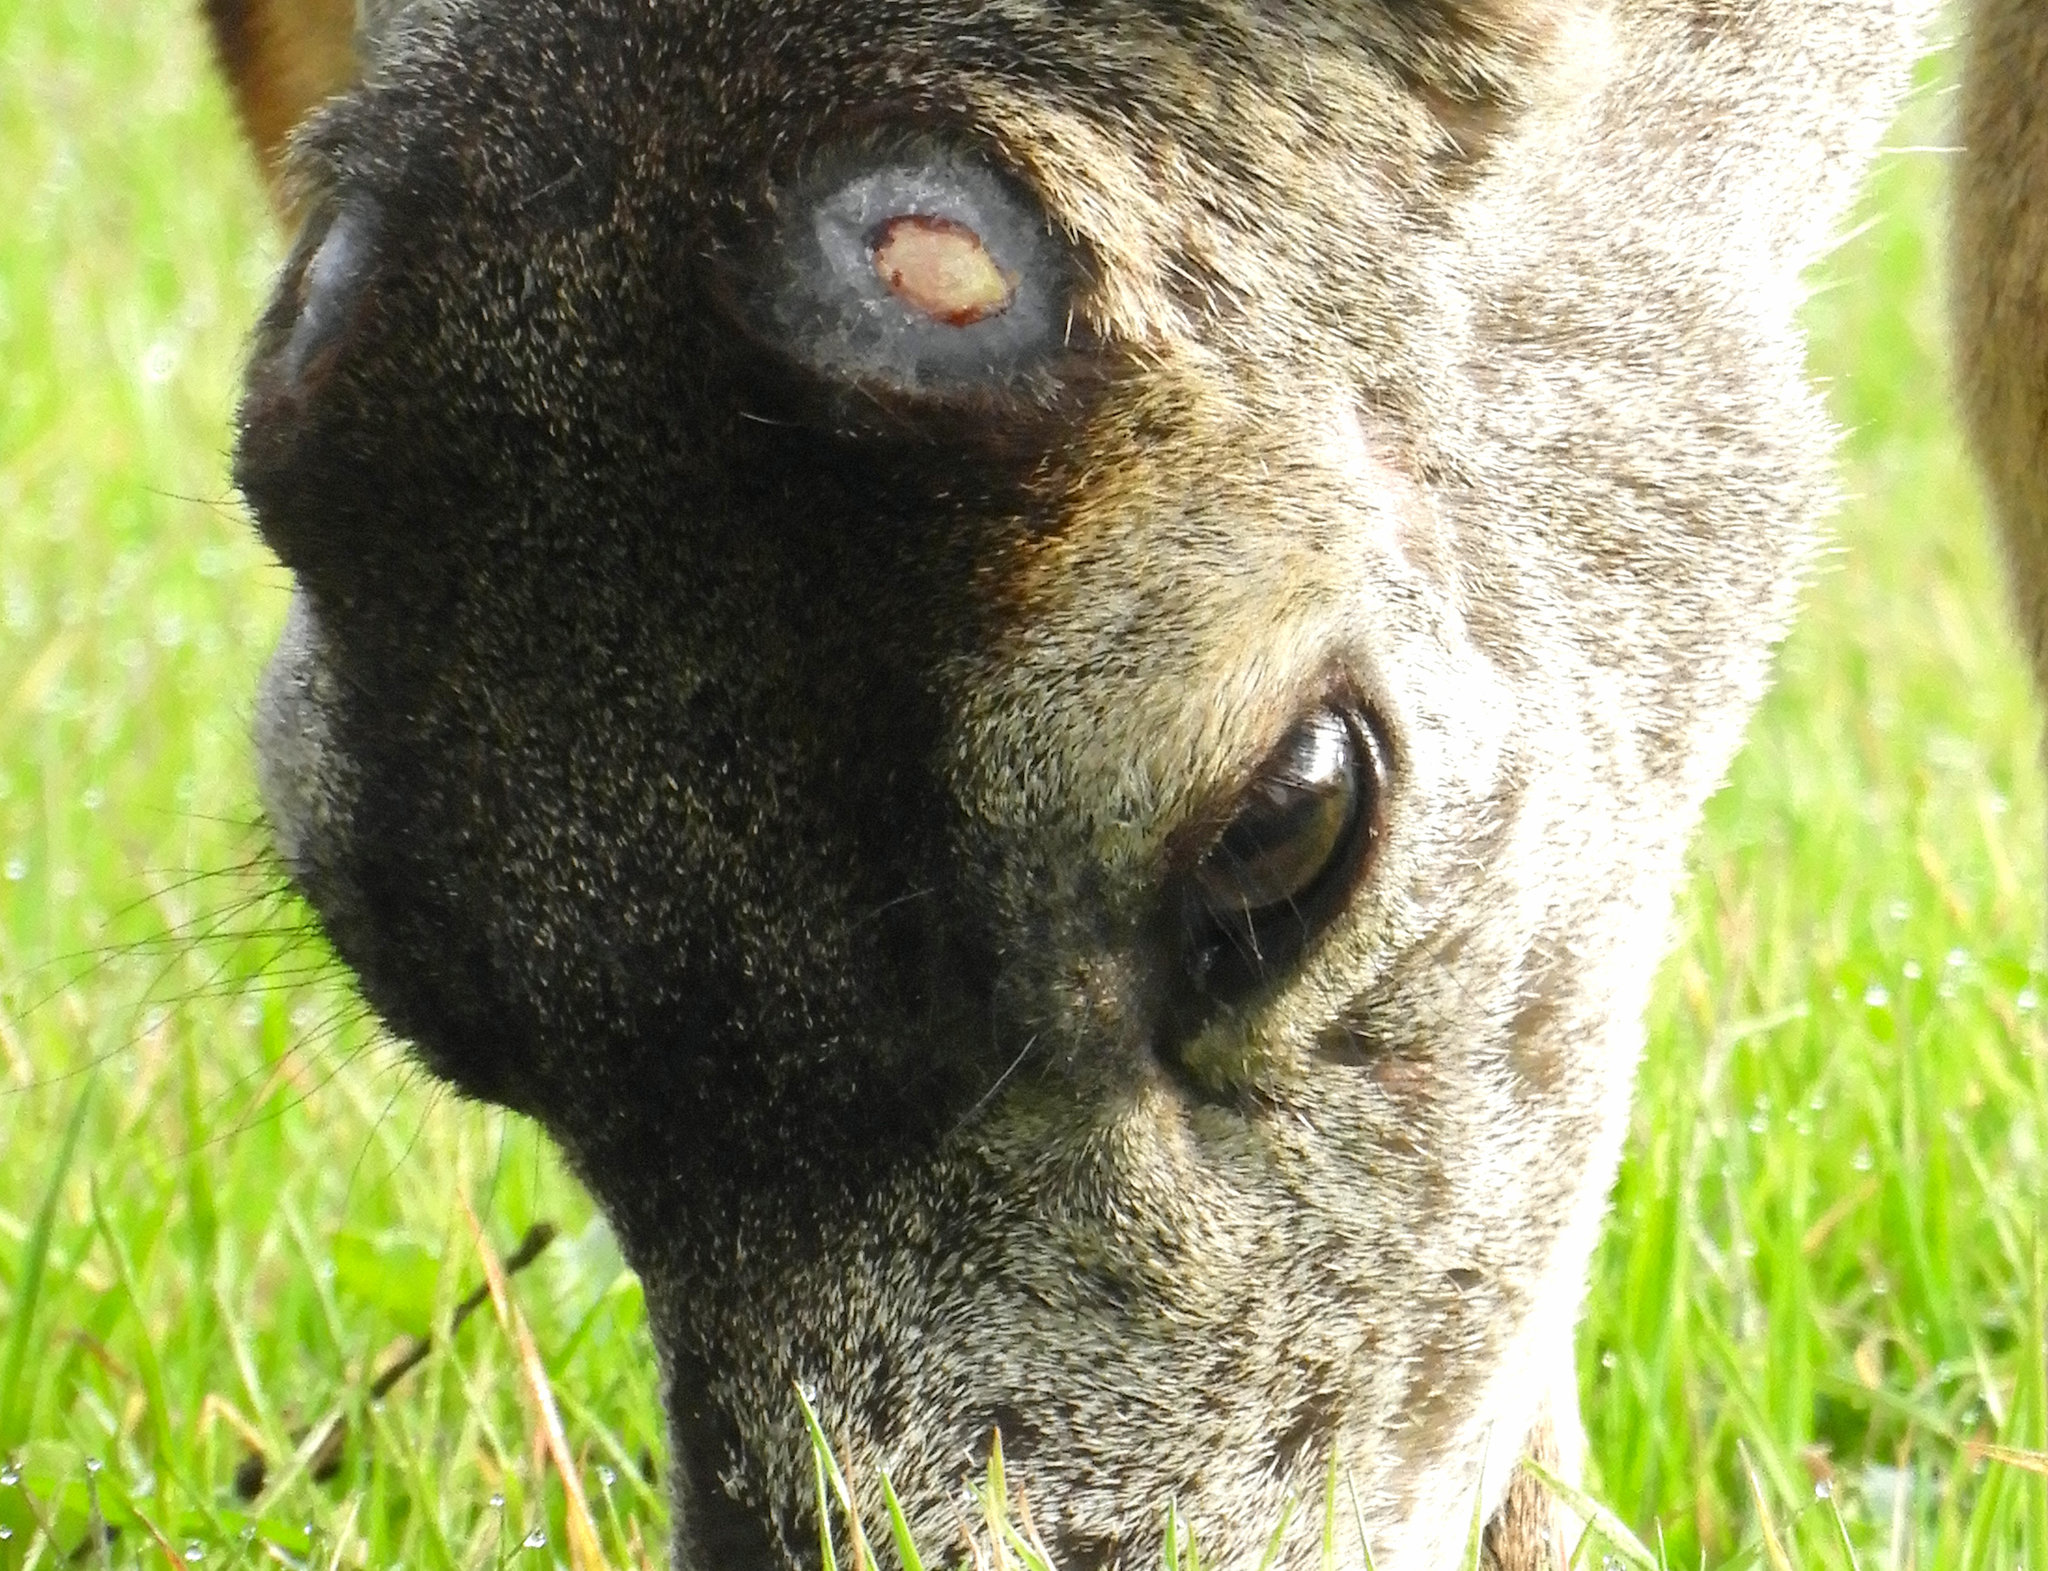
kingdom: Animalia
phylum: Chordata
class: Mammalia
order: Artiodactyla
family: Cervidae
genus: Odocoileus
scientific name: Odocoileus hemionus
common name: Mule deer
